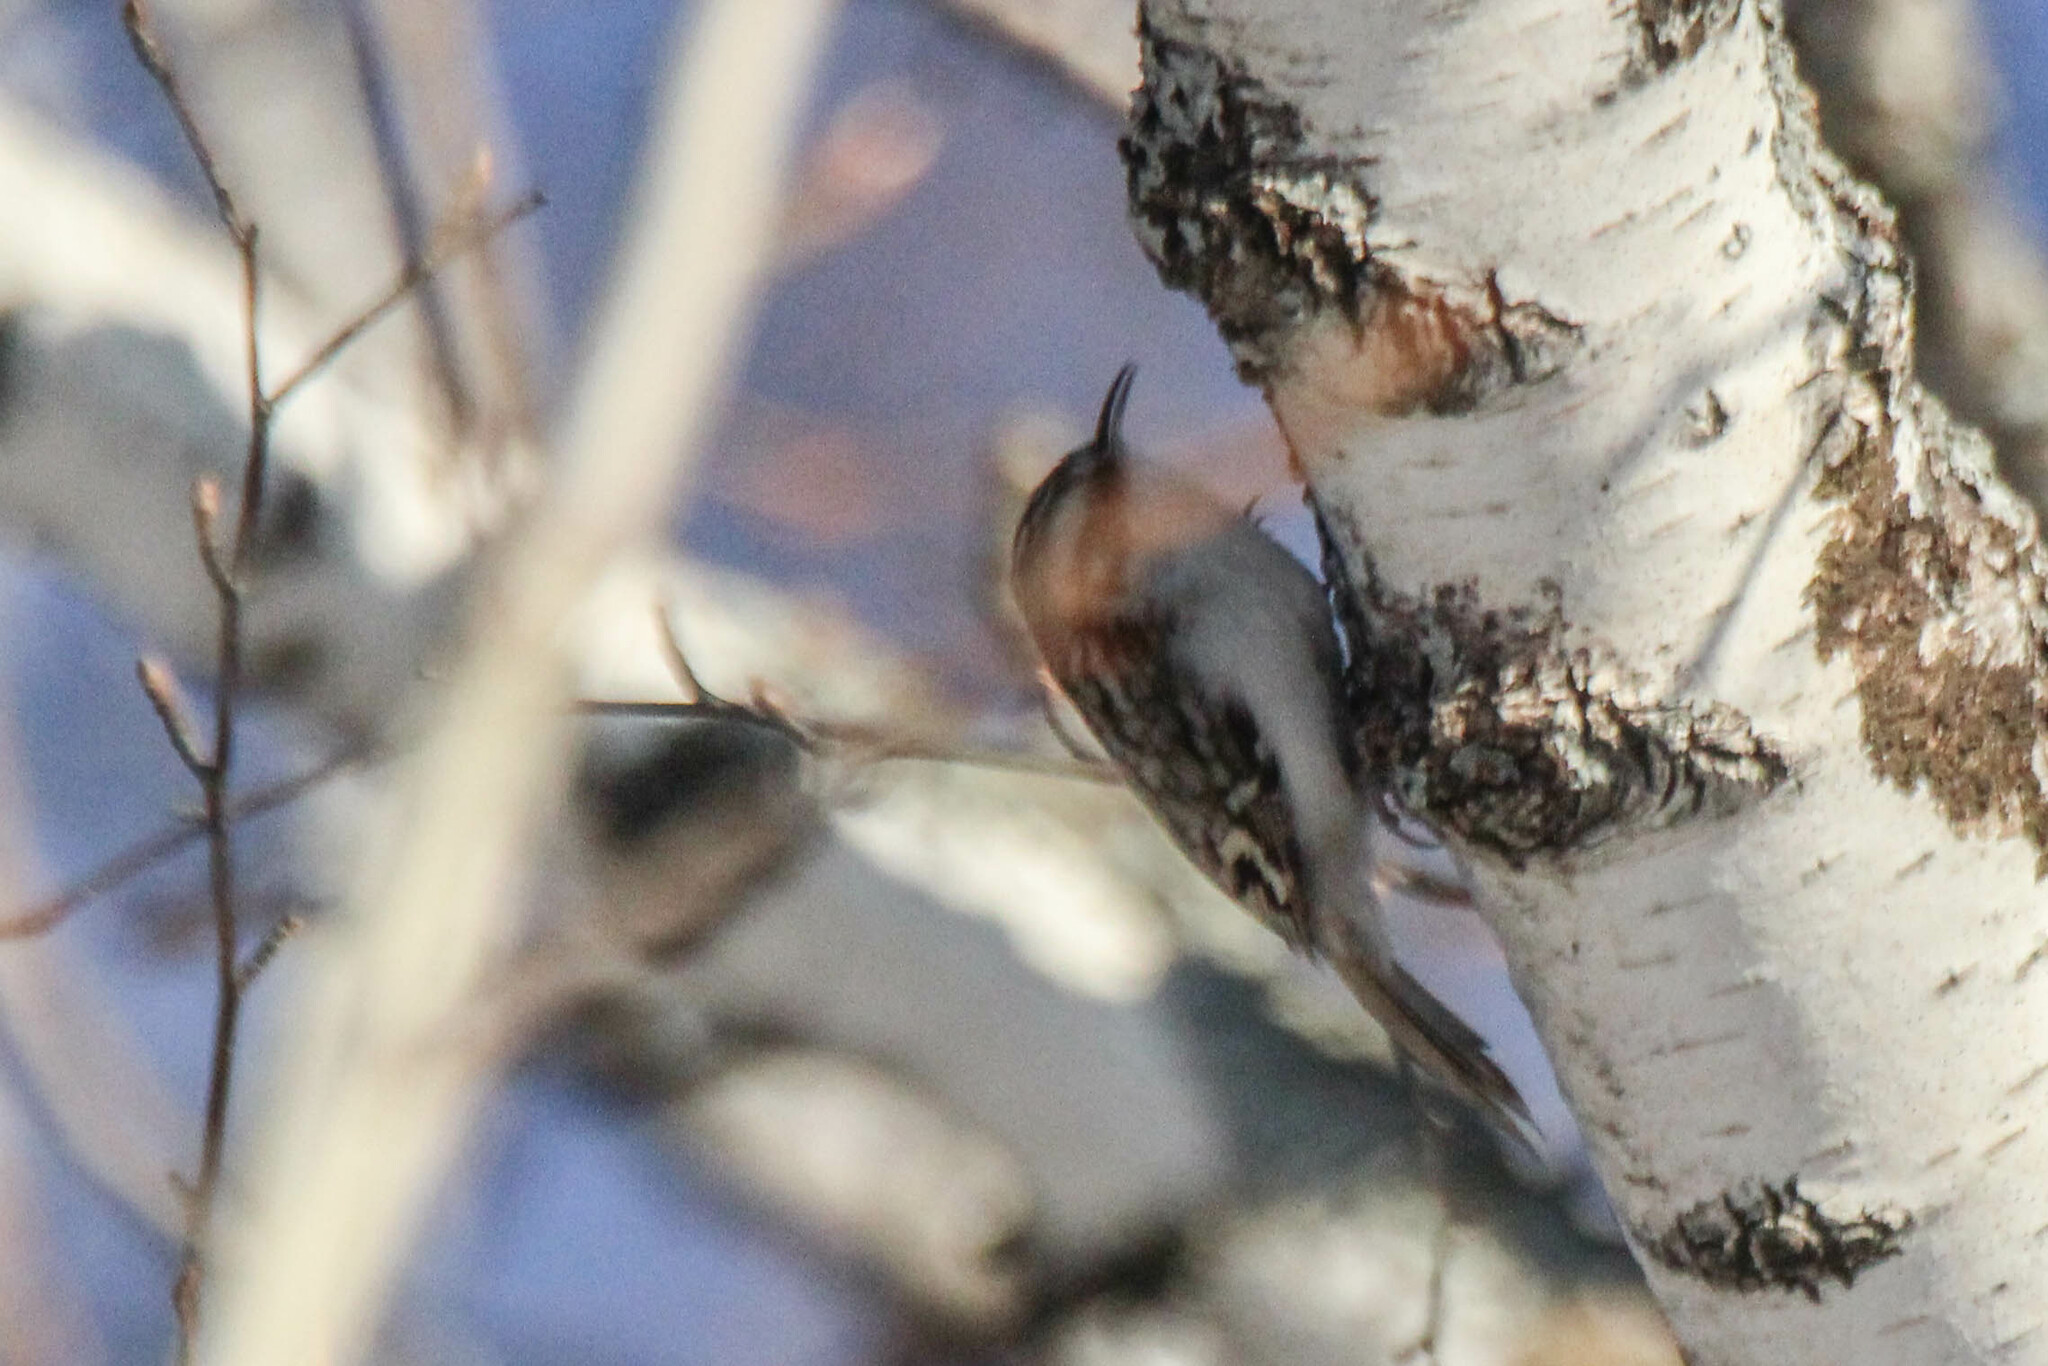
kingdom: Animalia
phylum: Chordata
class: Aves
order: Passeriformes
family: Certhiidae
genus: Certhia
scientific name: Certhia familiaris
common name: Eurasian treecreeper
